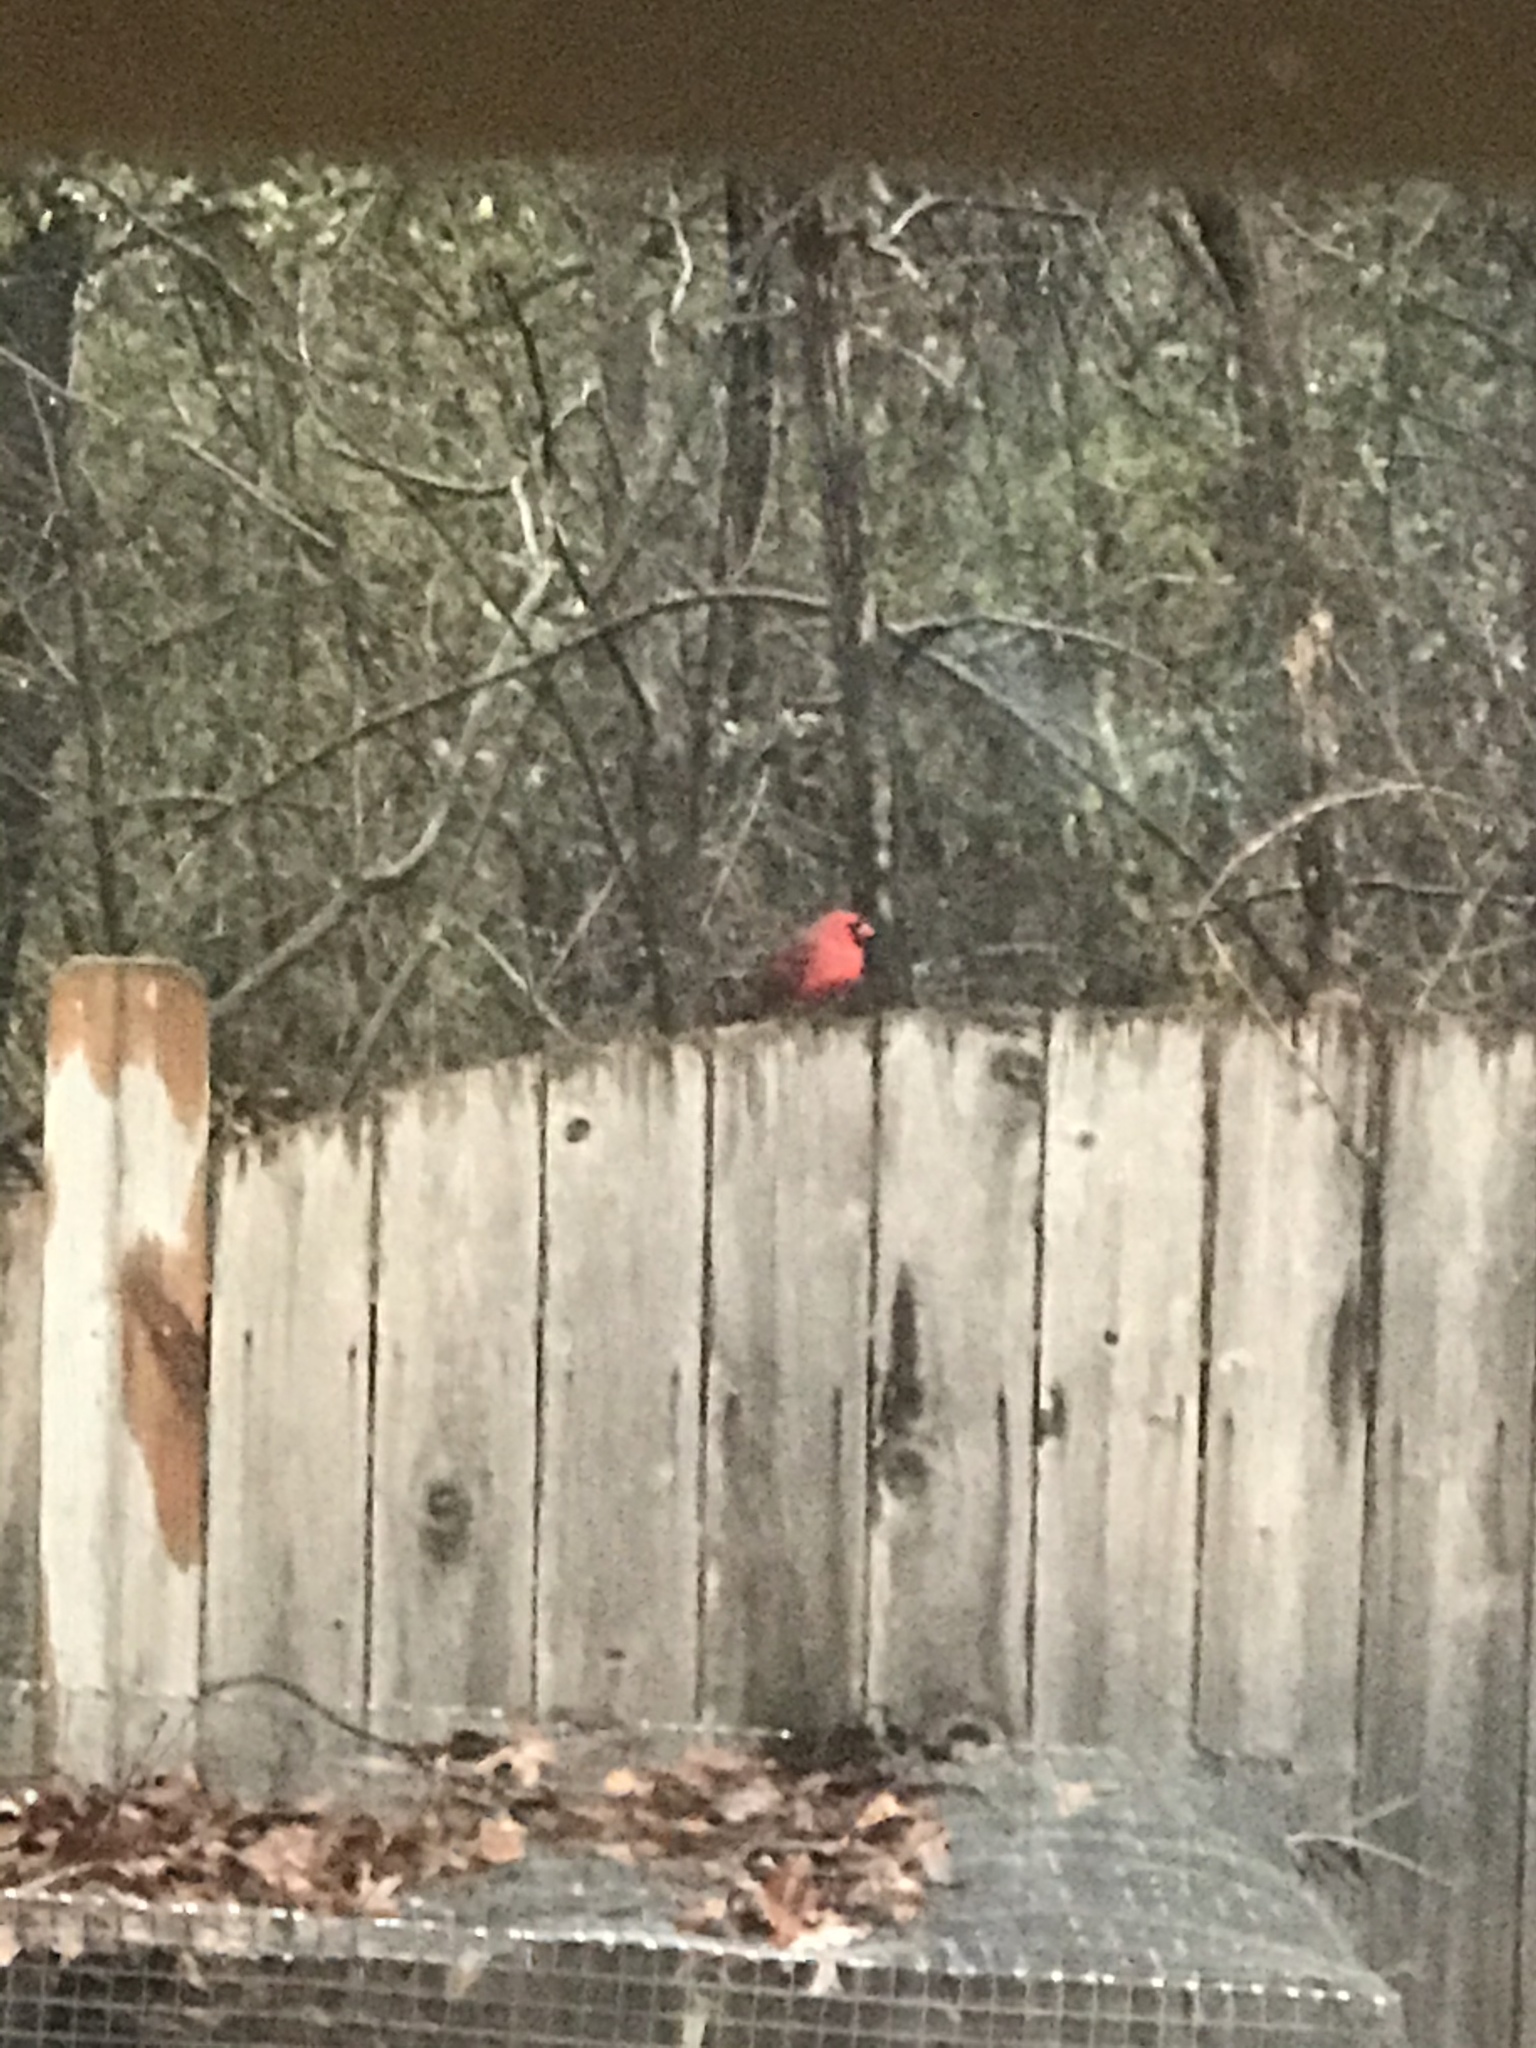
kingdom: Animalia
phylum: Chordata
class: Aves
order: Passeriformes
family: Cardinalidae
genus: Cardinalis
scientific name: Cardinalis cardinalis
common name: Northern cardinal
